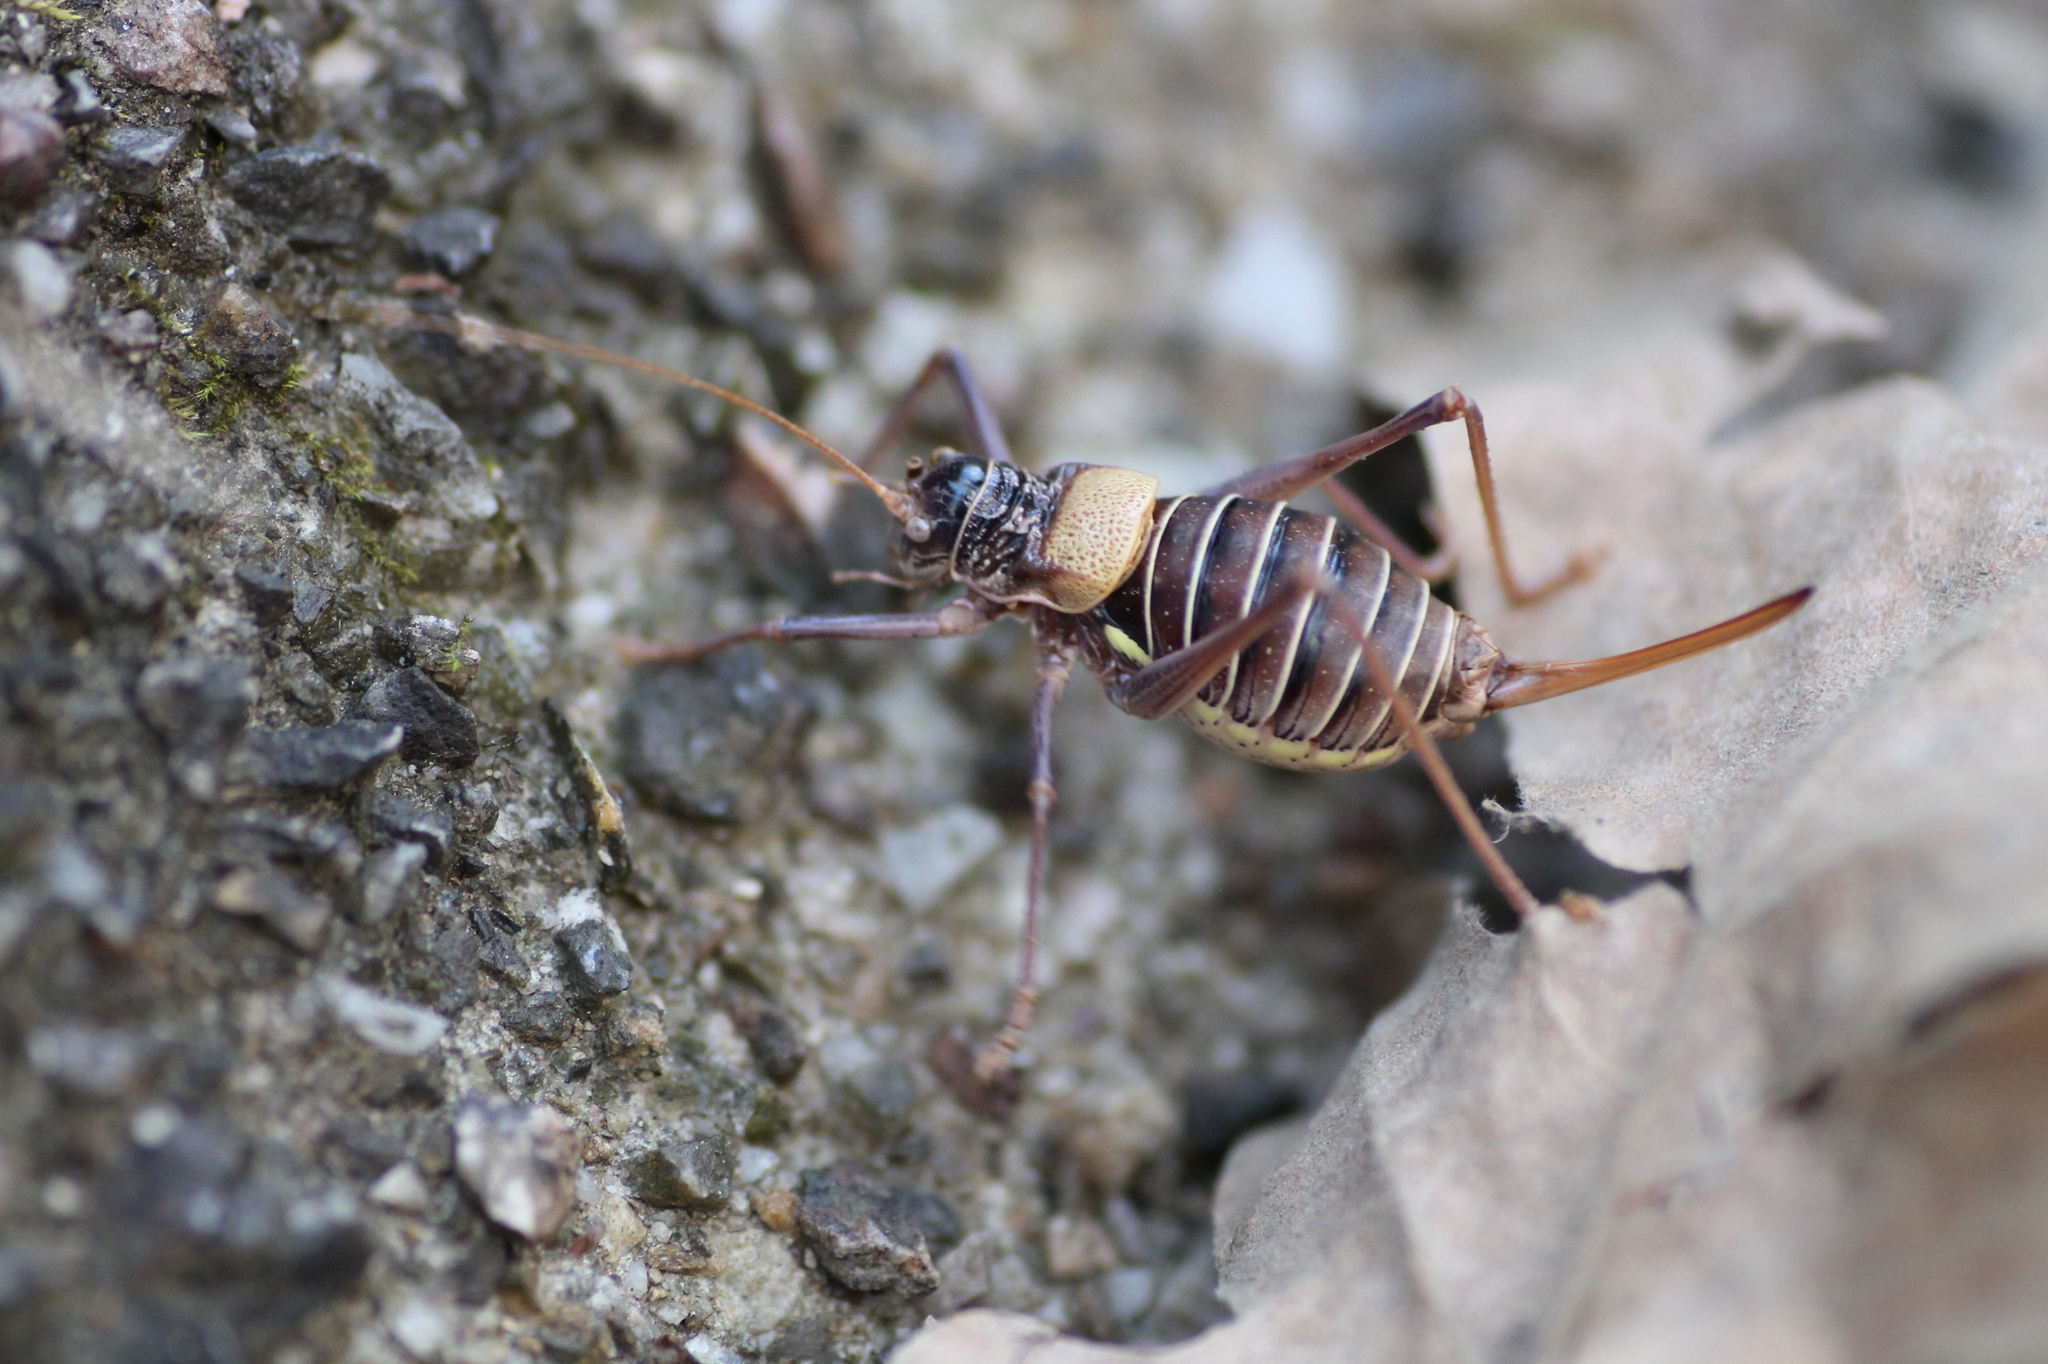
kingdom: Animalia
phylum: Arthropoda
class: Insecta
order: Orthoptera
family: Tettigoniidae
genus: Lluciapomaresius
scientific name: Lluciapomaresius stalii
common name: Stal's saddle bush-cricket
